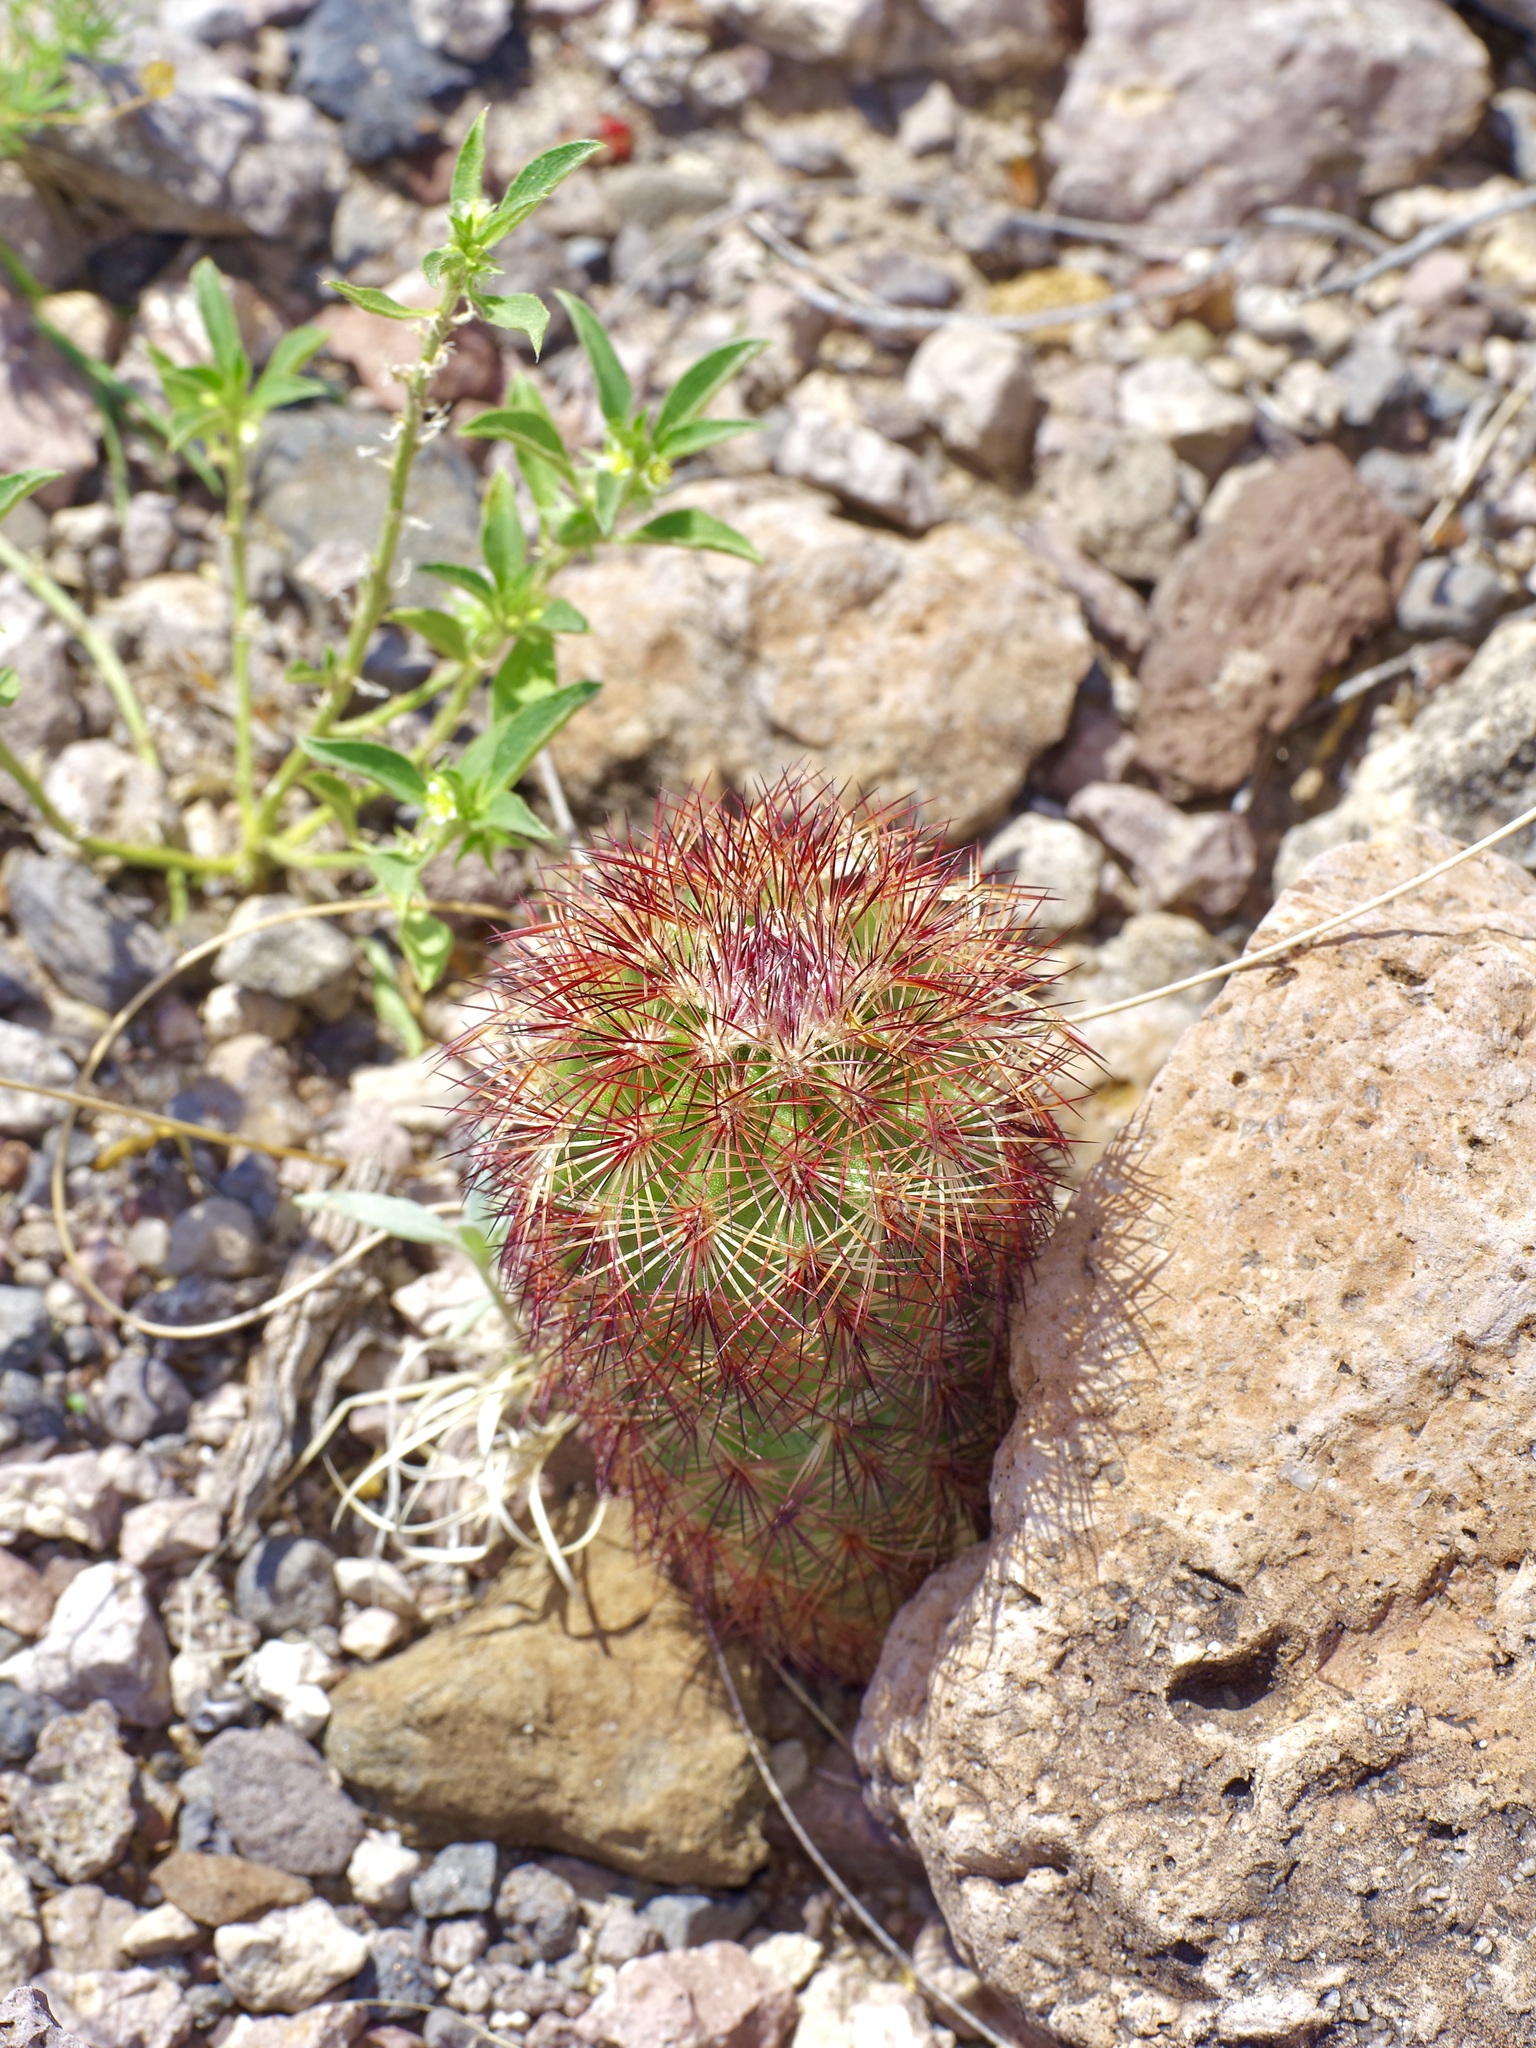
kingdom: Plantae
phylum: Tracheophyta
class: Magnoliopsida
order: Caryophyllales
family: Cactaceae
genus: Echinocereus
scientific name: Echinocereus dasyacanthus
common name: Spiny hedgehog cactus
